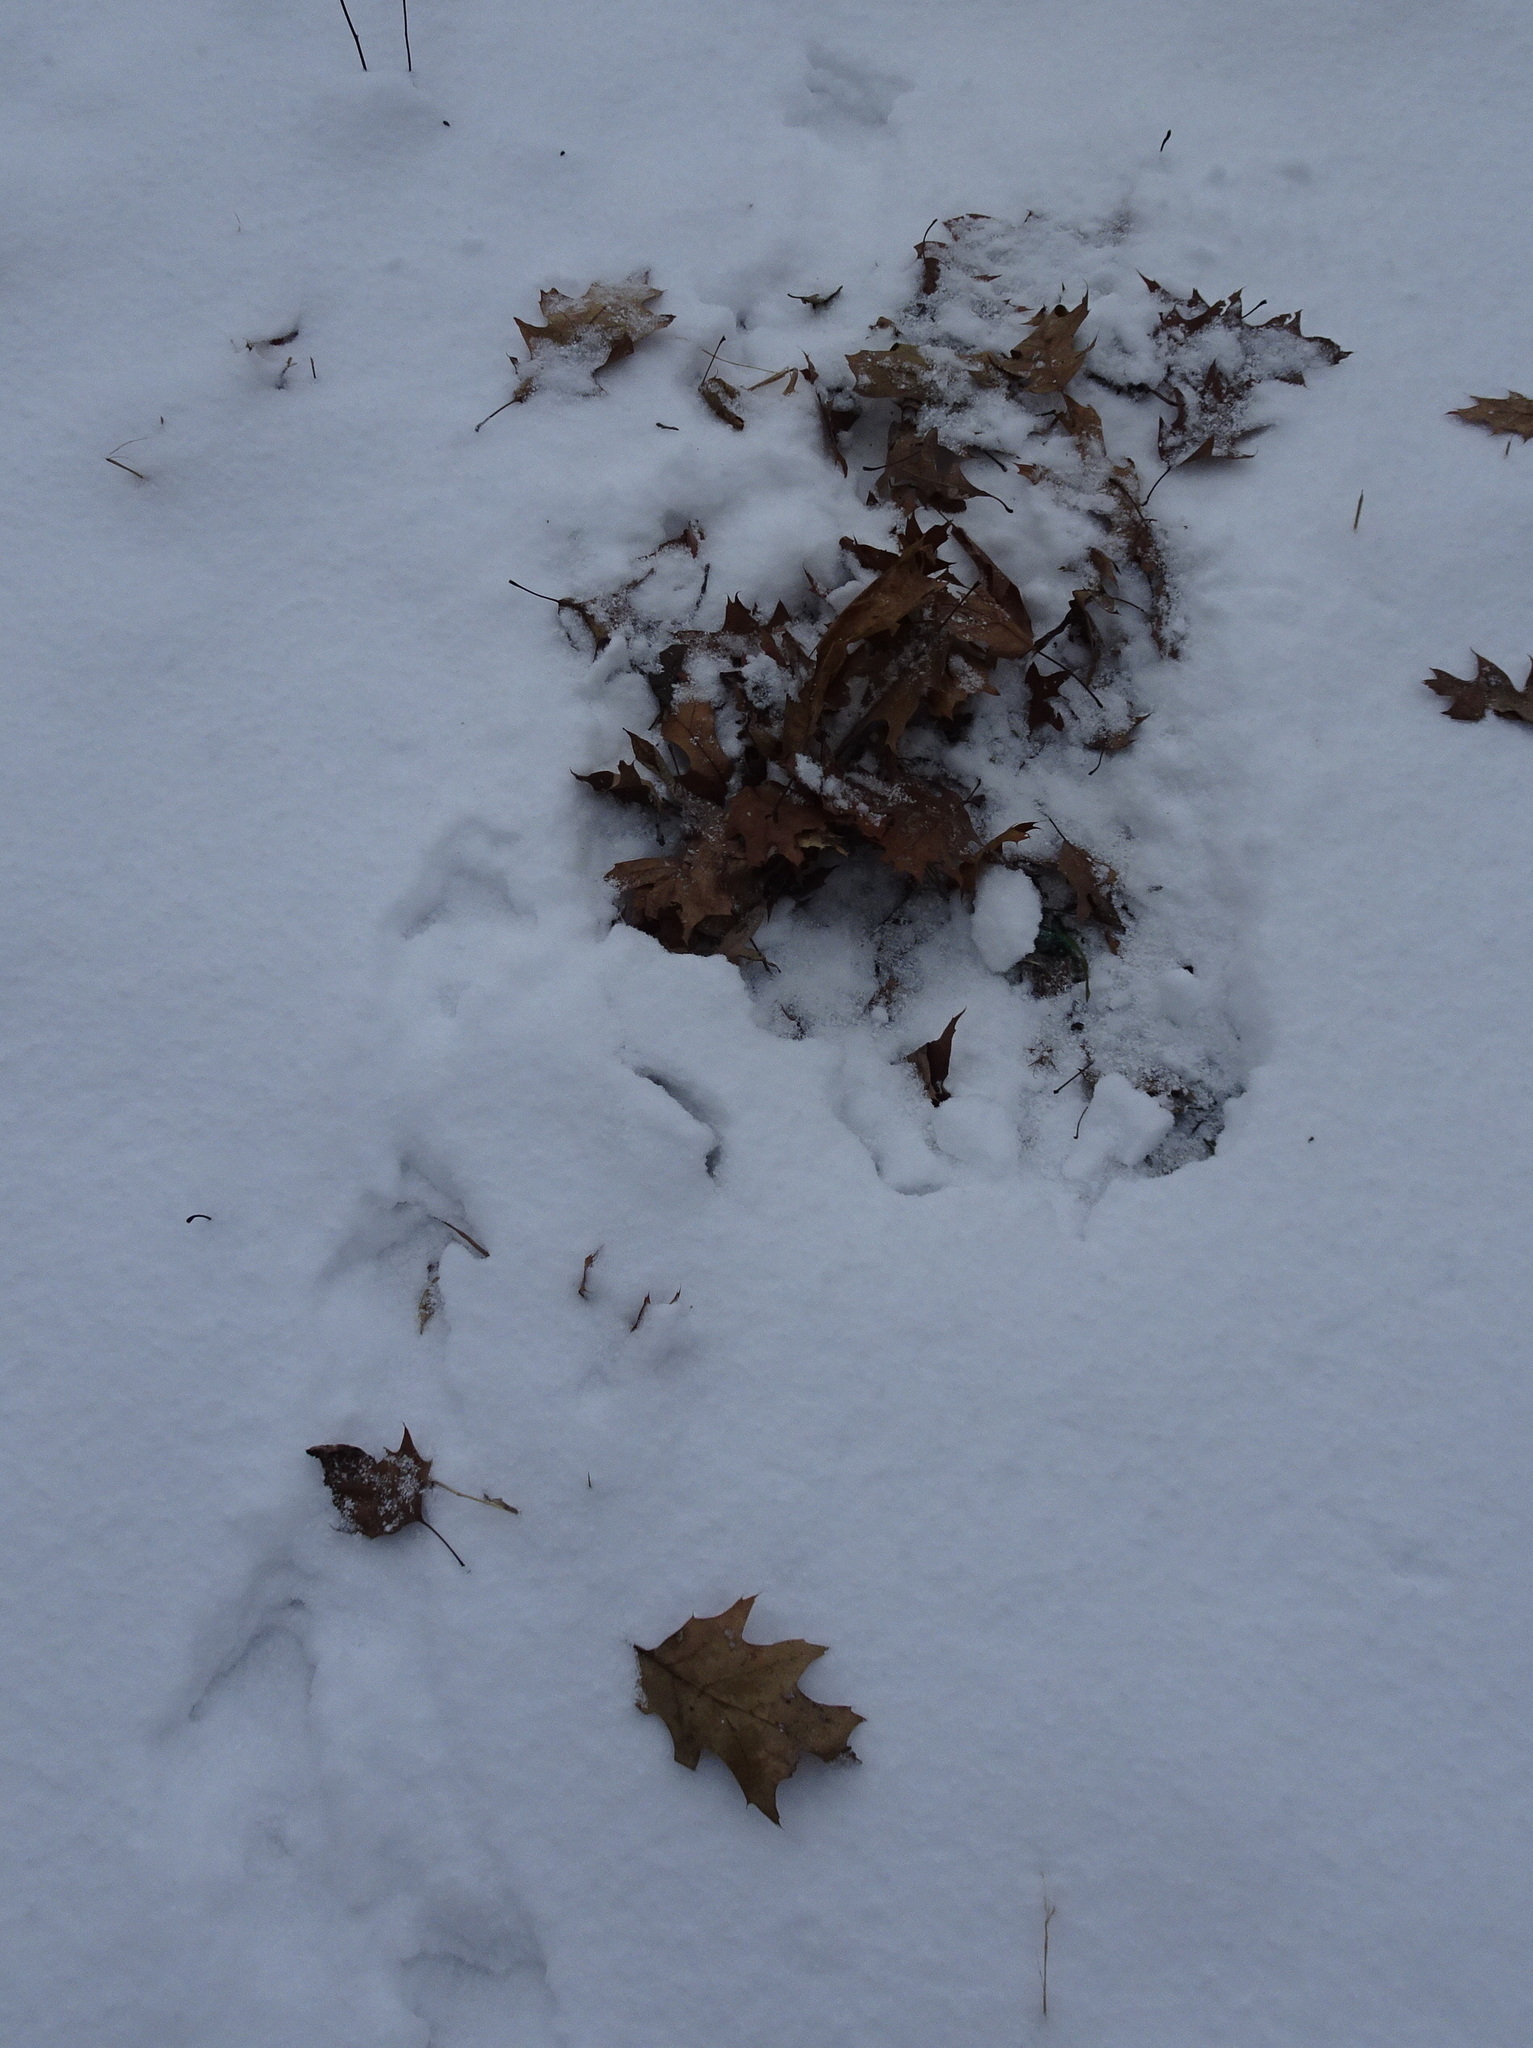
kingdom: Animalia
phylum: Chordata
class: Aves
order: Galliformes
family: Phasianidae
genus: Meleagris
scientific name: Meleagris gallopavo
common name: Wild turkey
